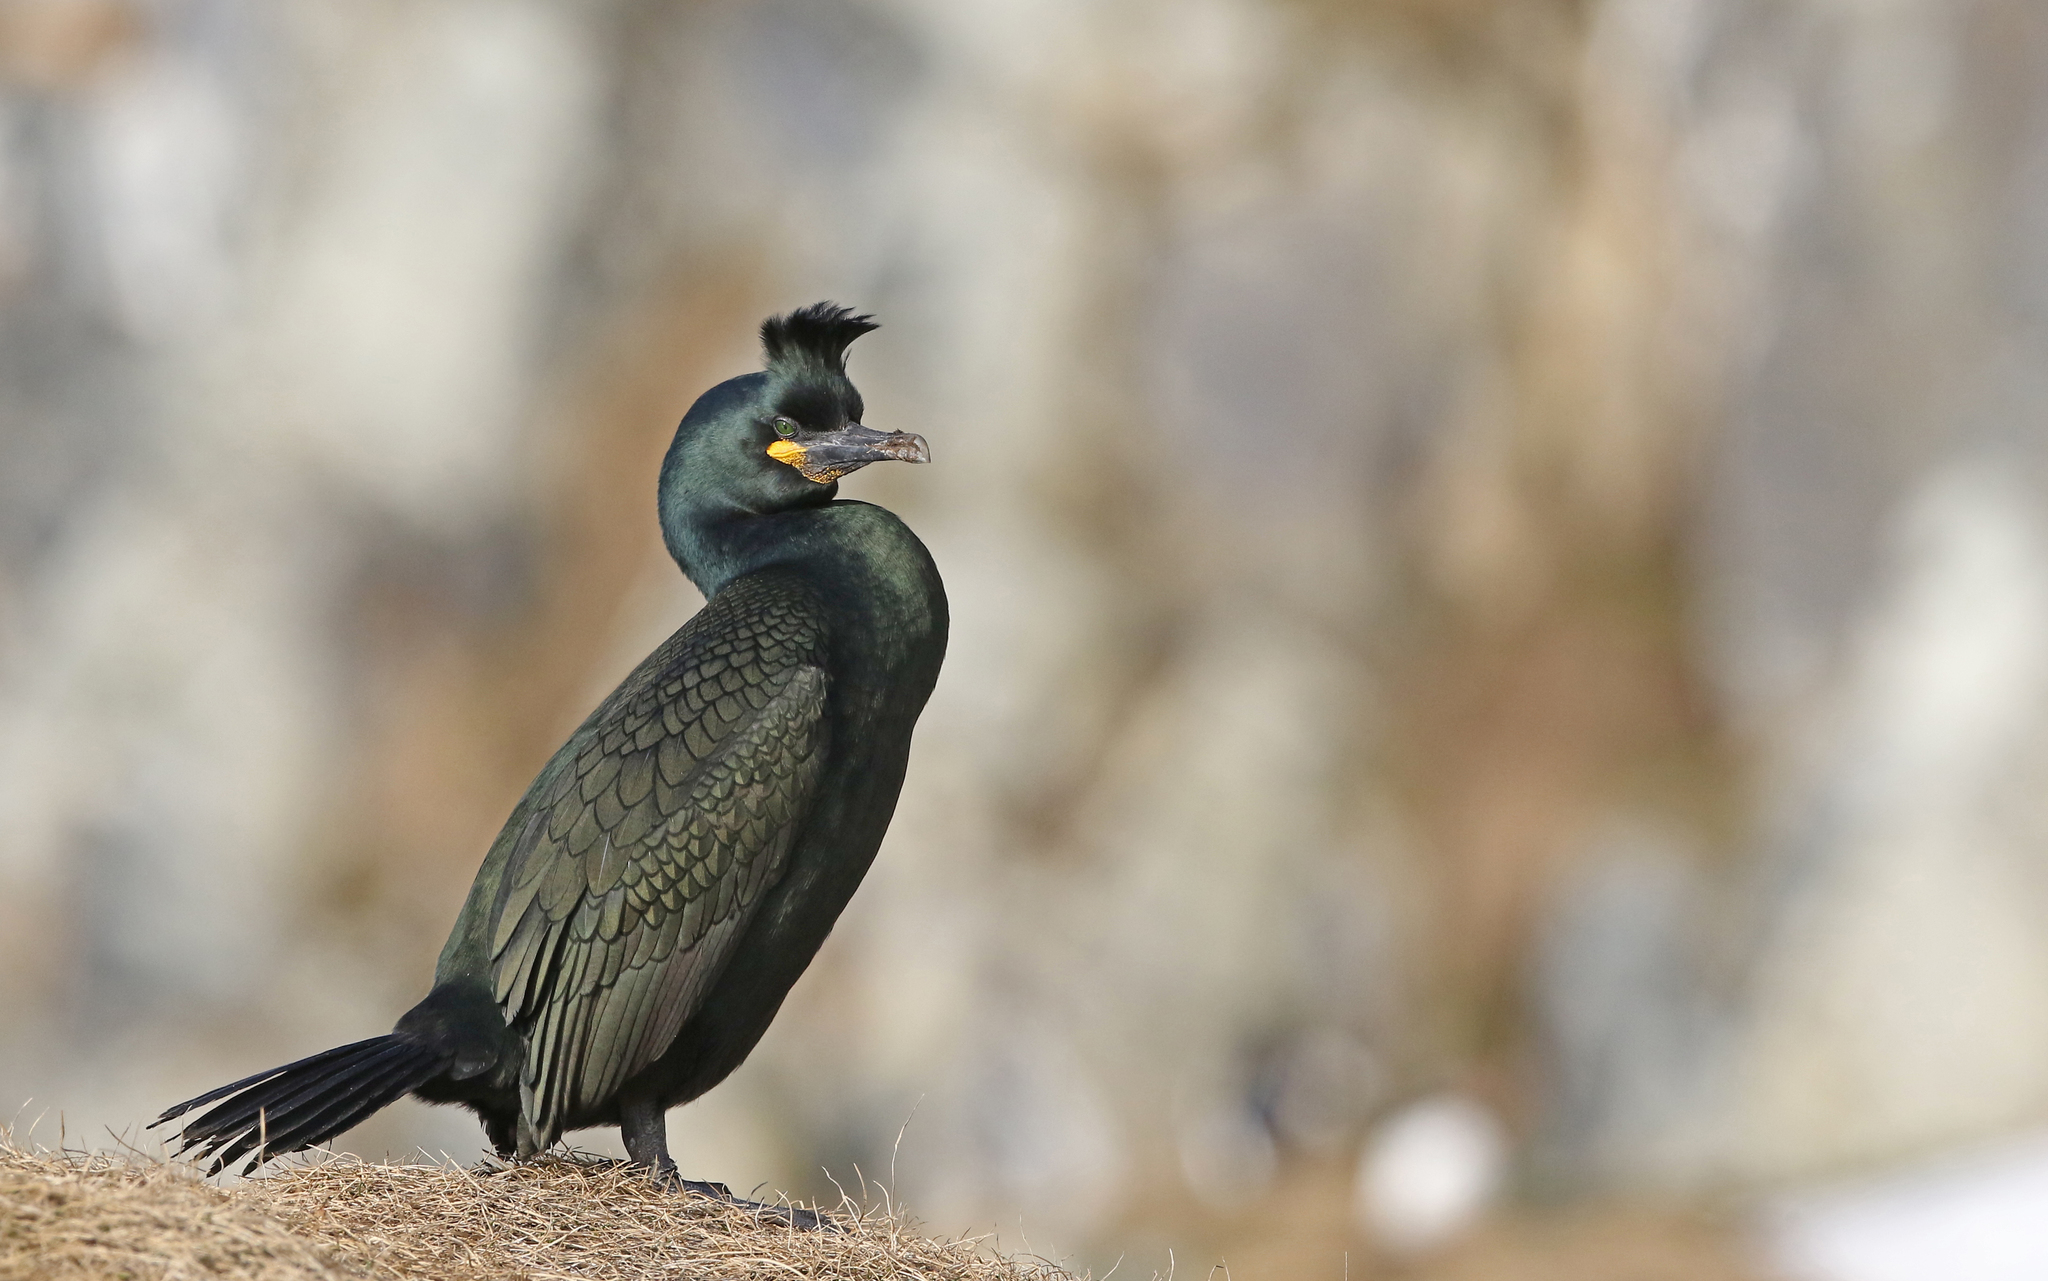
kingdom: Animalia
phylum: Chordata
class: Aves
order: Suliformes
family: Phalacrocoracidae
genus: Phalacrocorax
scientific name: Phalacrocorax aristotelis
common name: European shag
